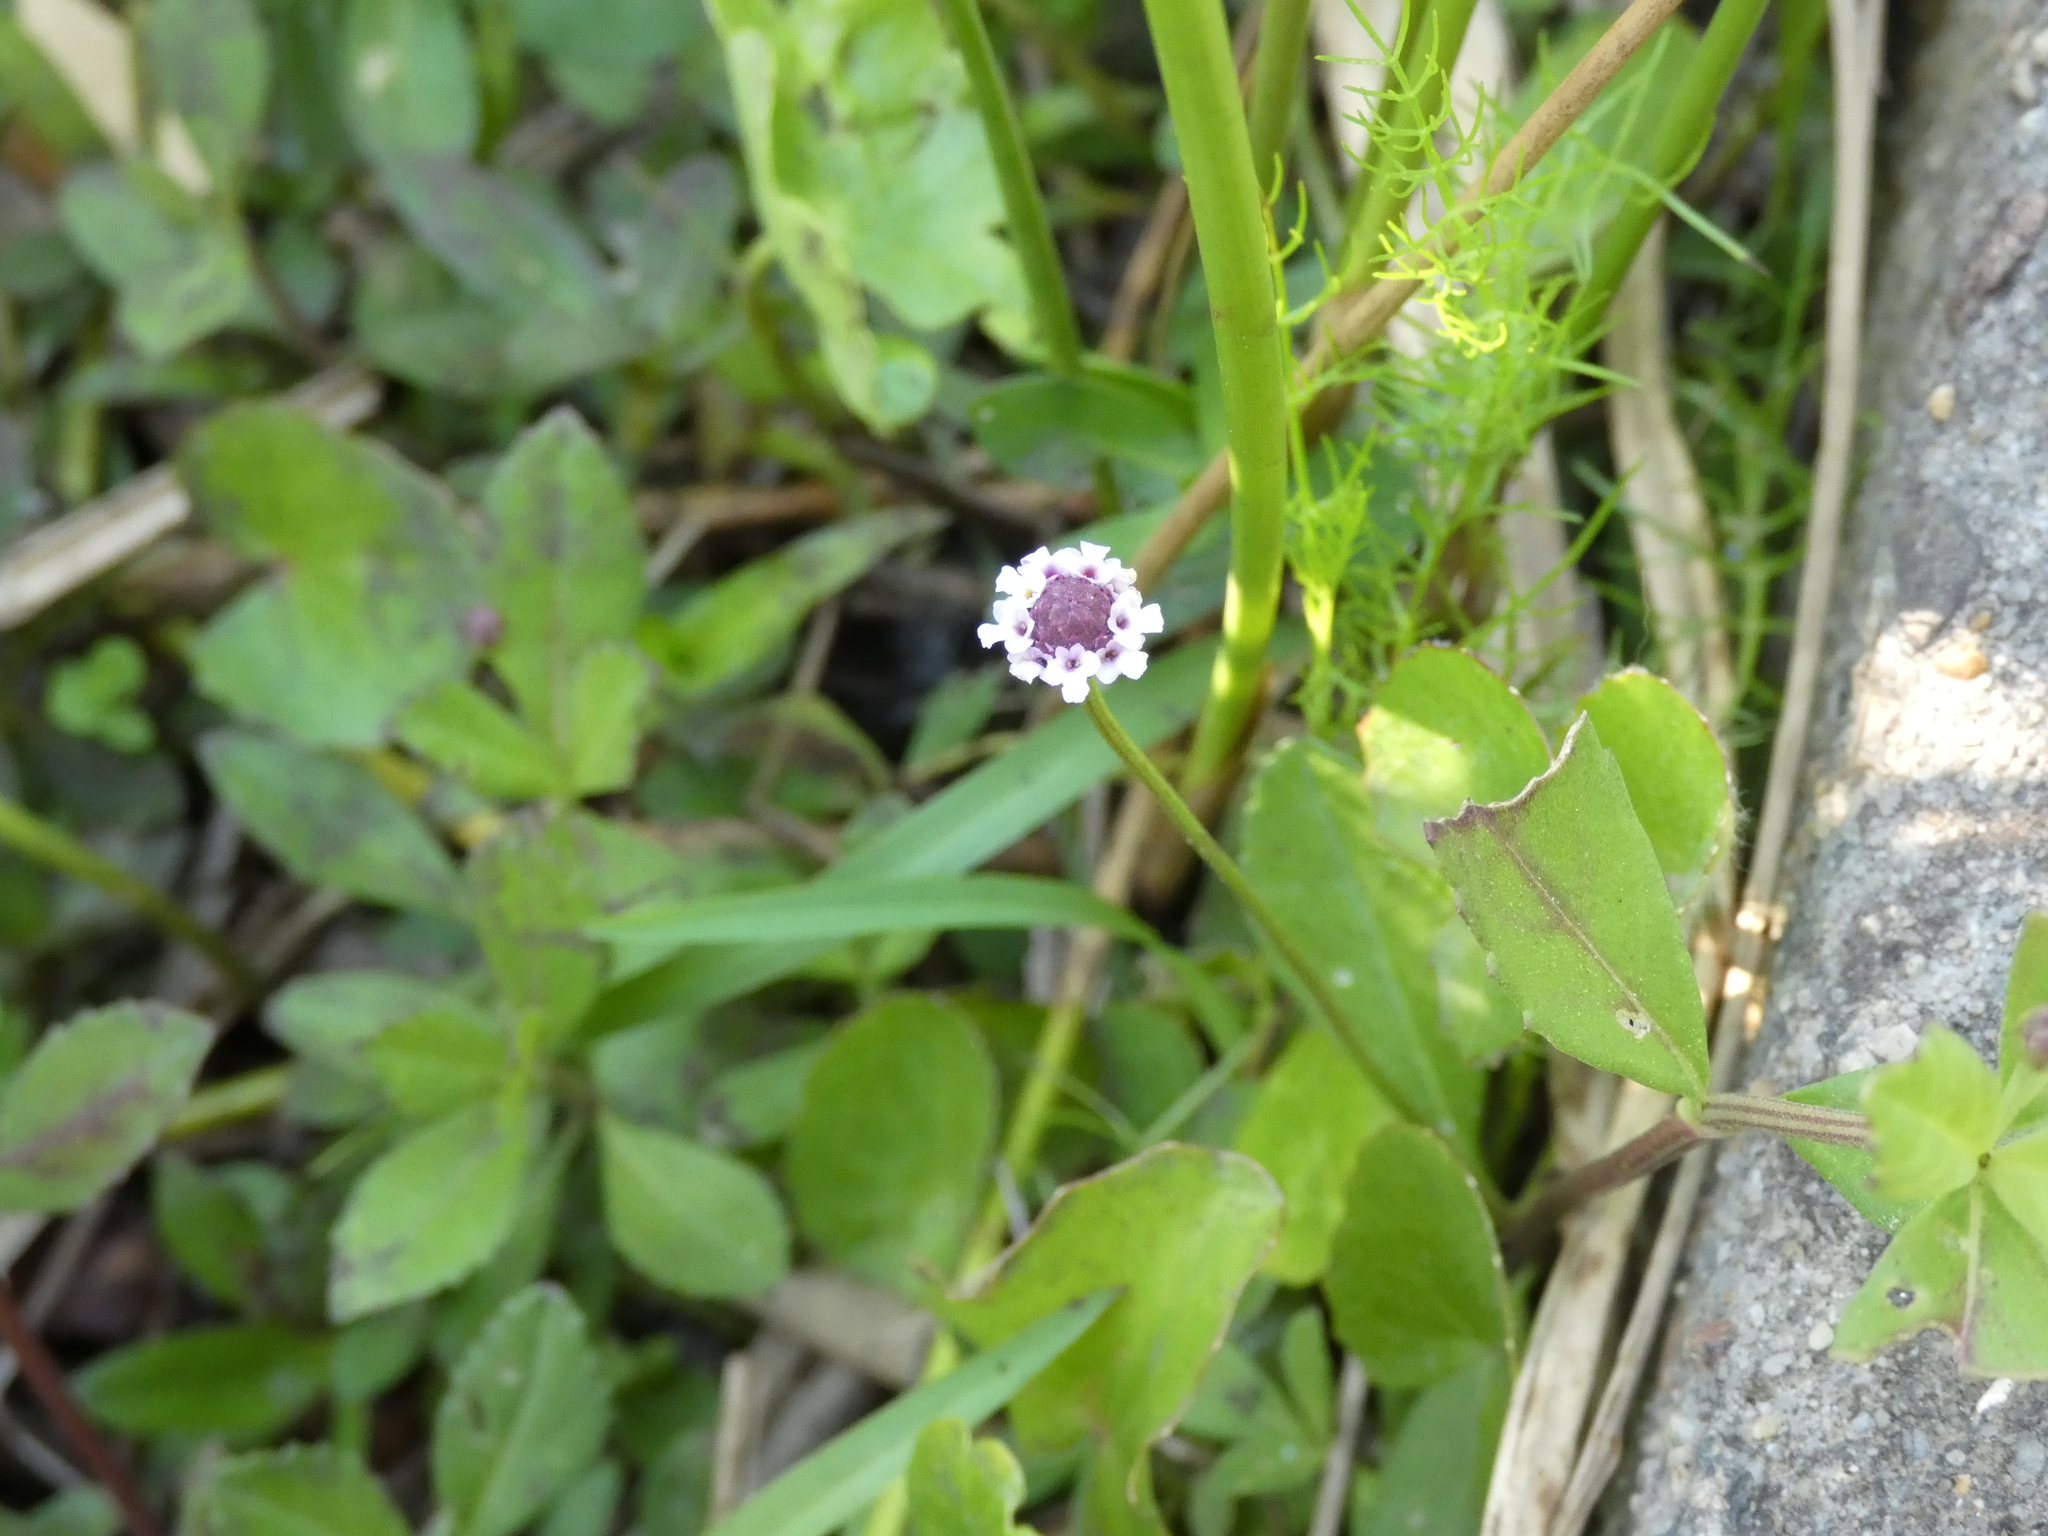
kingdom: Plantae
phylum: Tracheophyta
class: Magnoliopsida
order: Lamiales
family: Verbenaceae
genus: Phyla
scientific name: Phyla nodiflora
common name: Frogfruit
